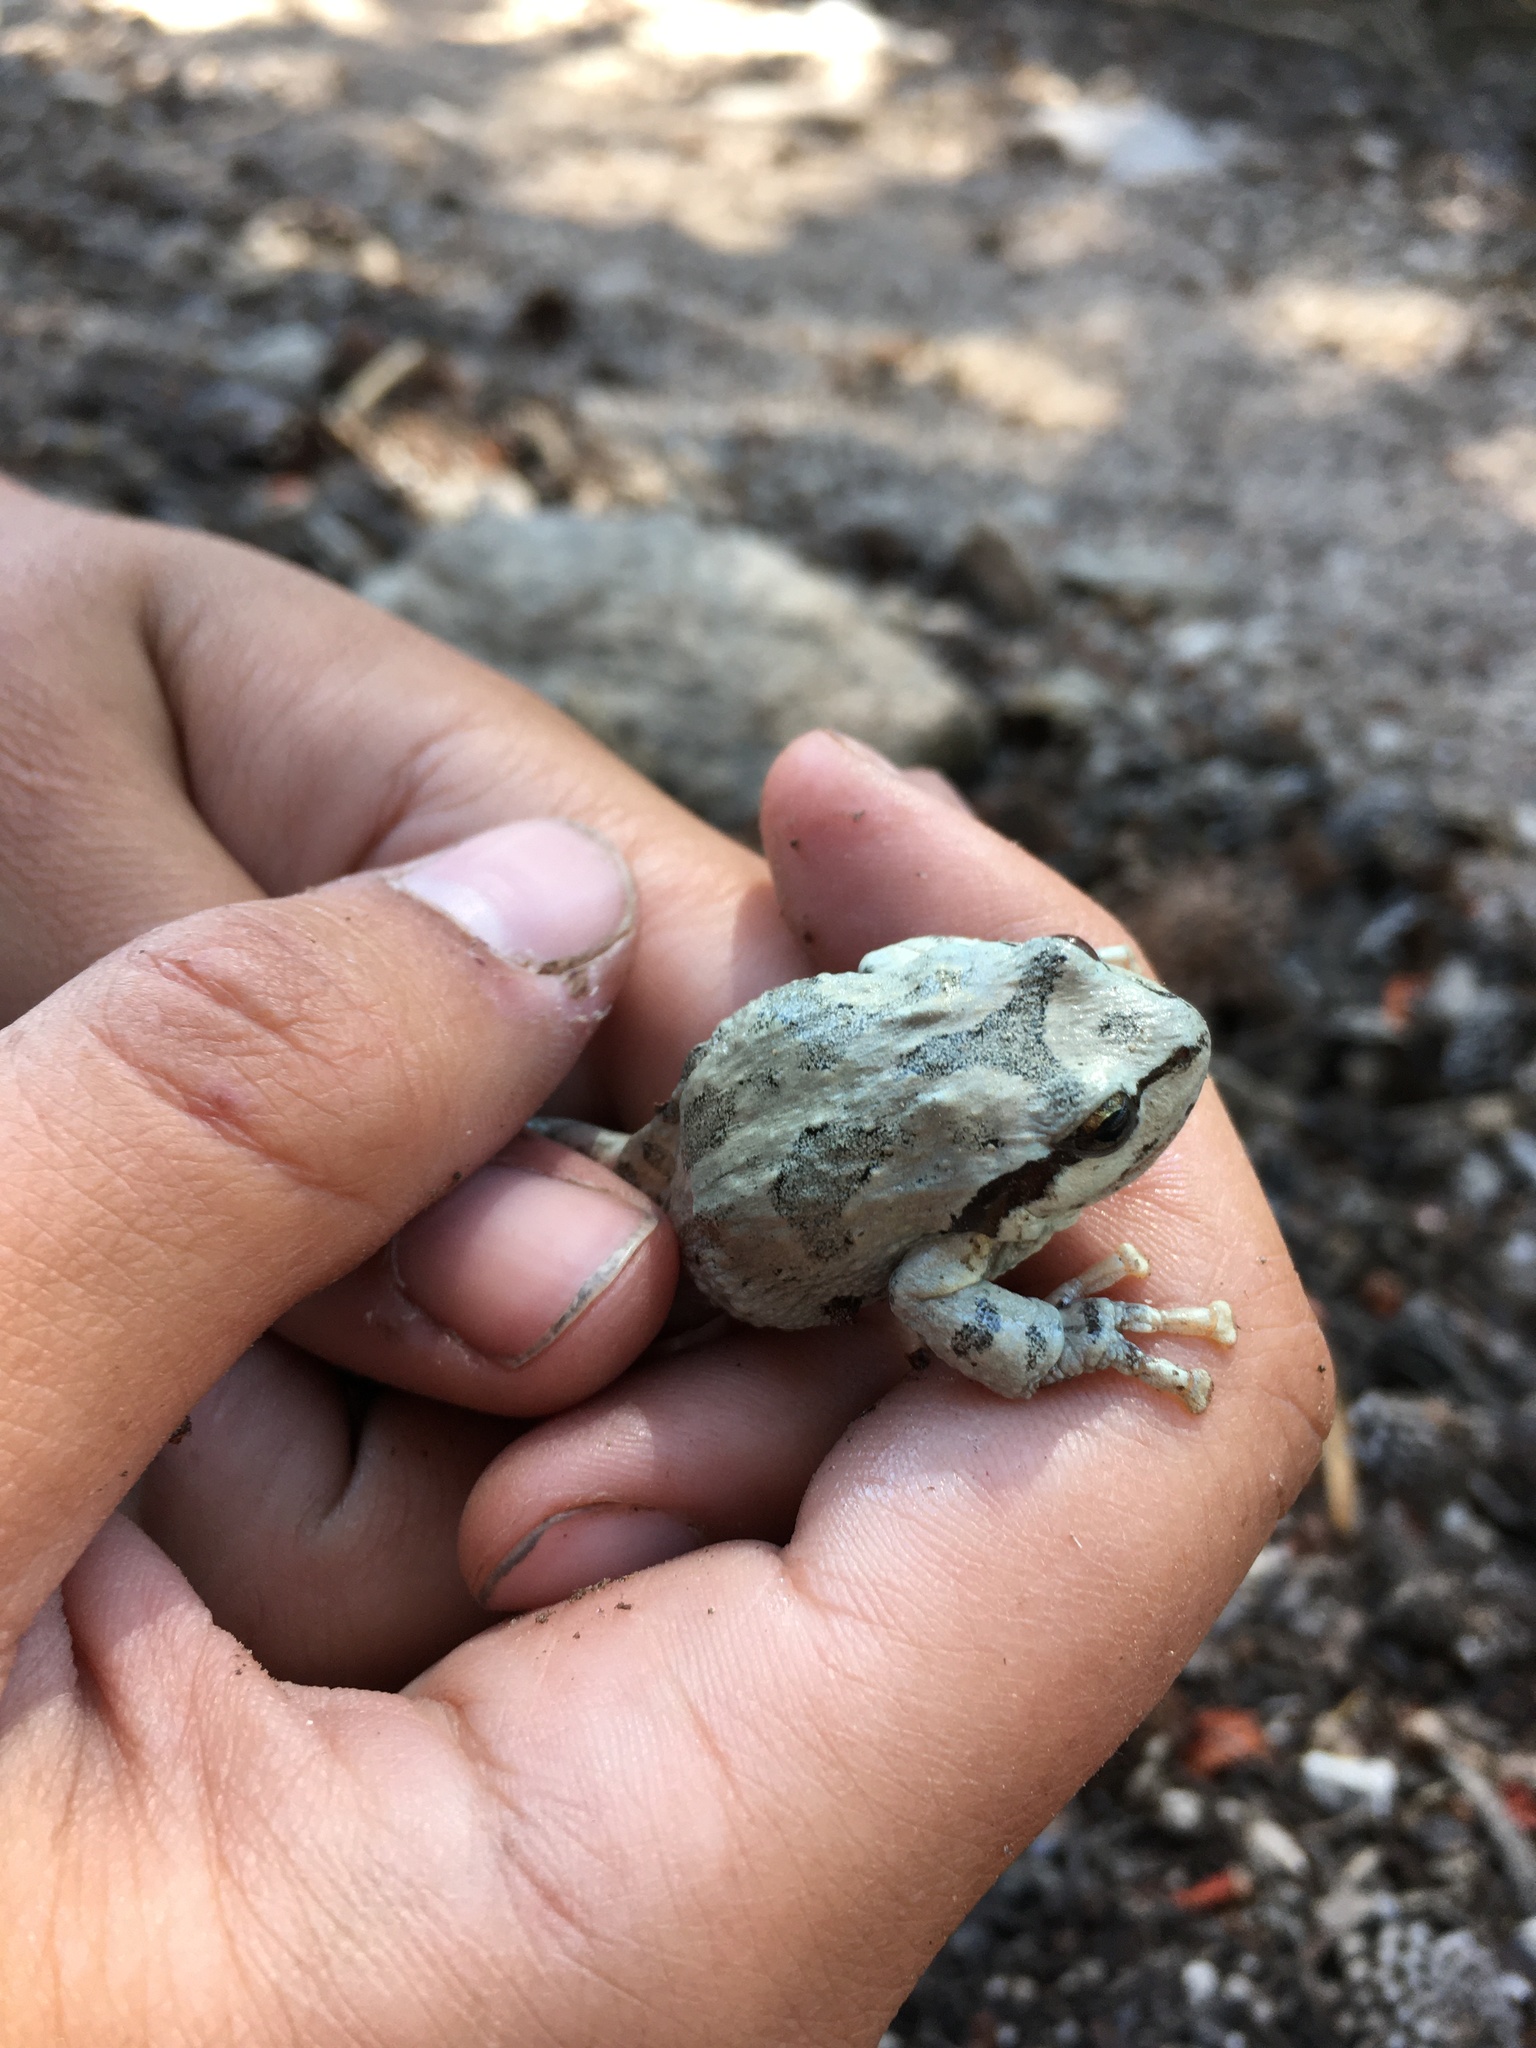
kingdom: Animalia
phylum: Chordata
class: Amphibia
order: Anura
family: Hylidae
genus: Pseudacris
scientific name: Pseudacris regilla
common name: Pacific chorus frog
